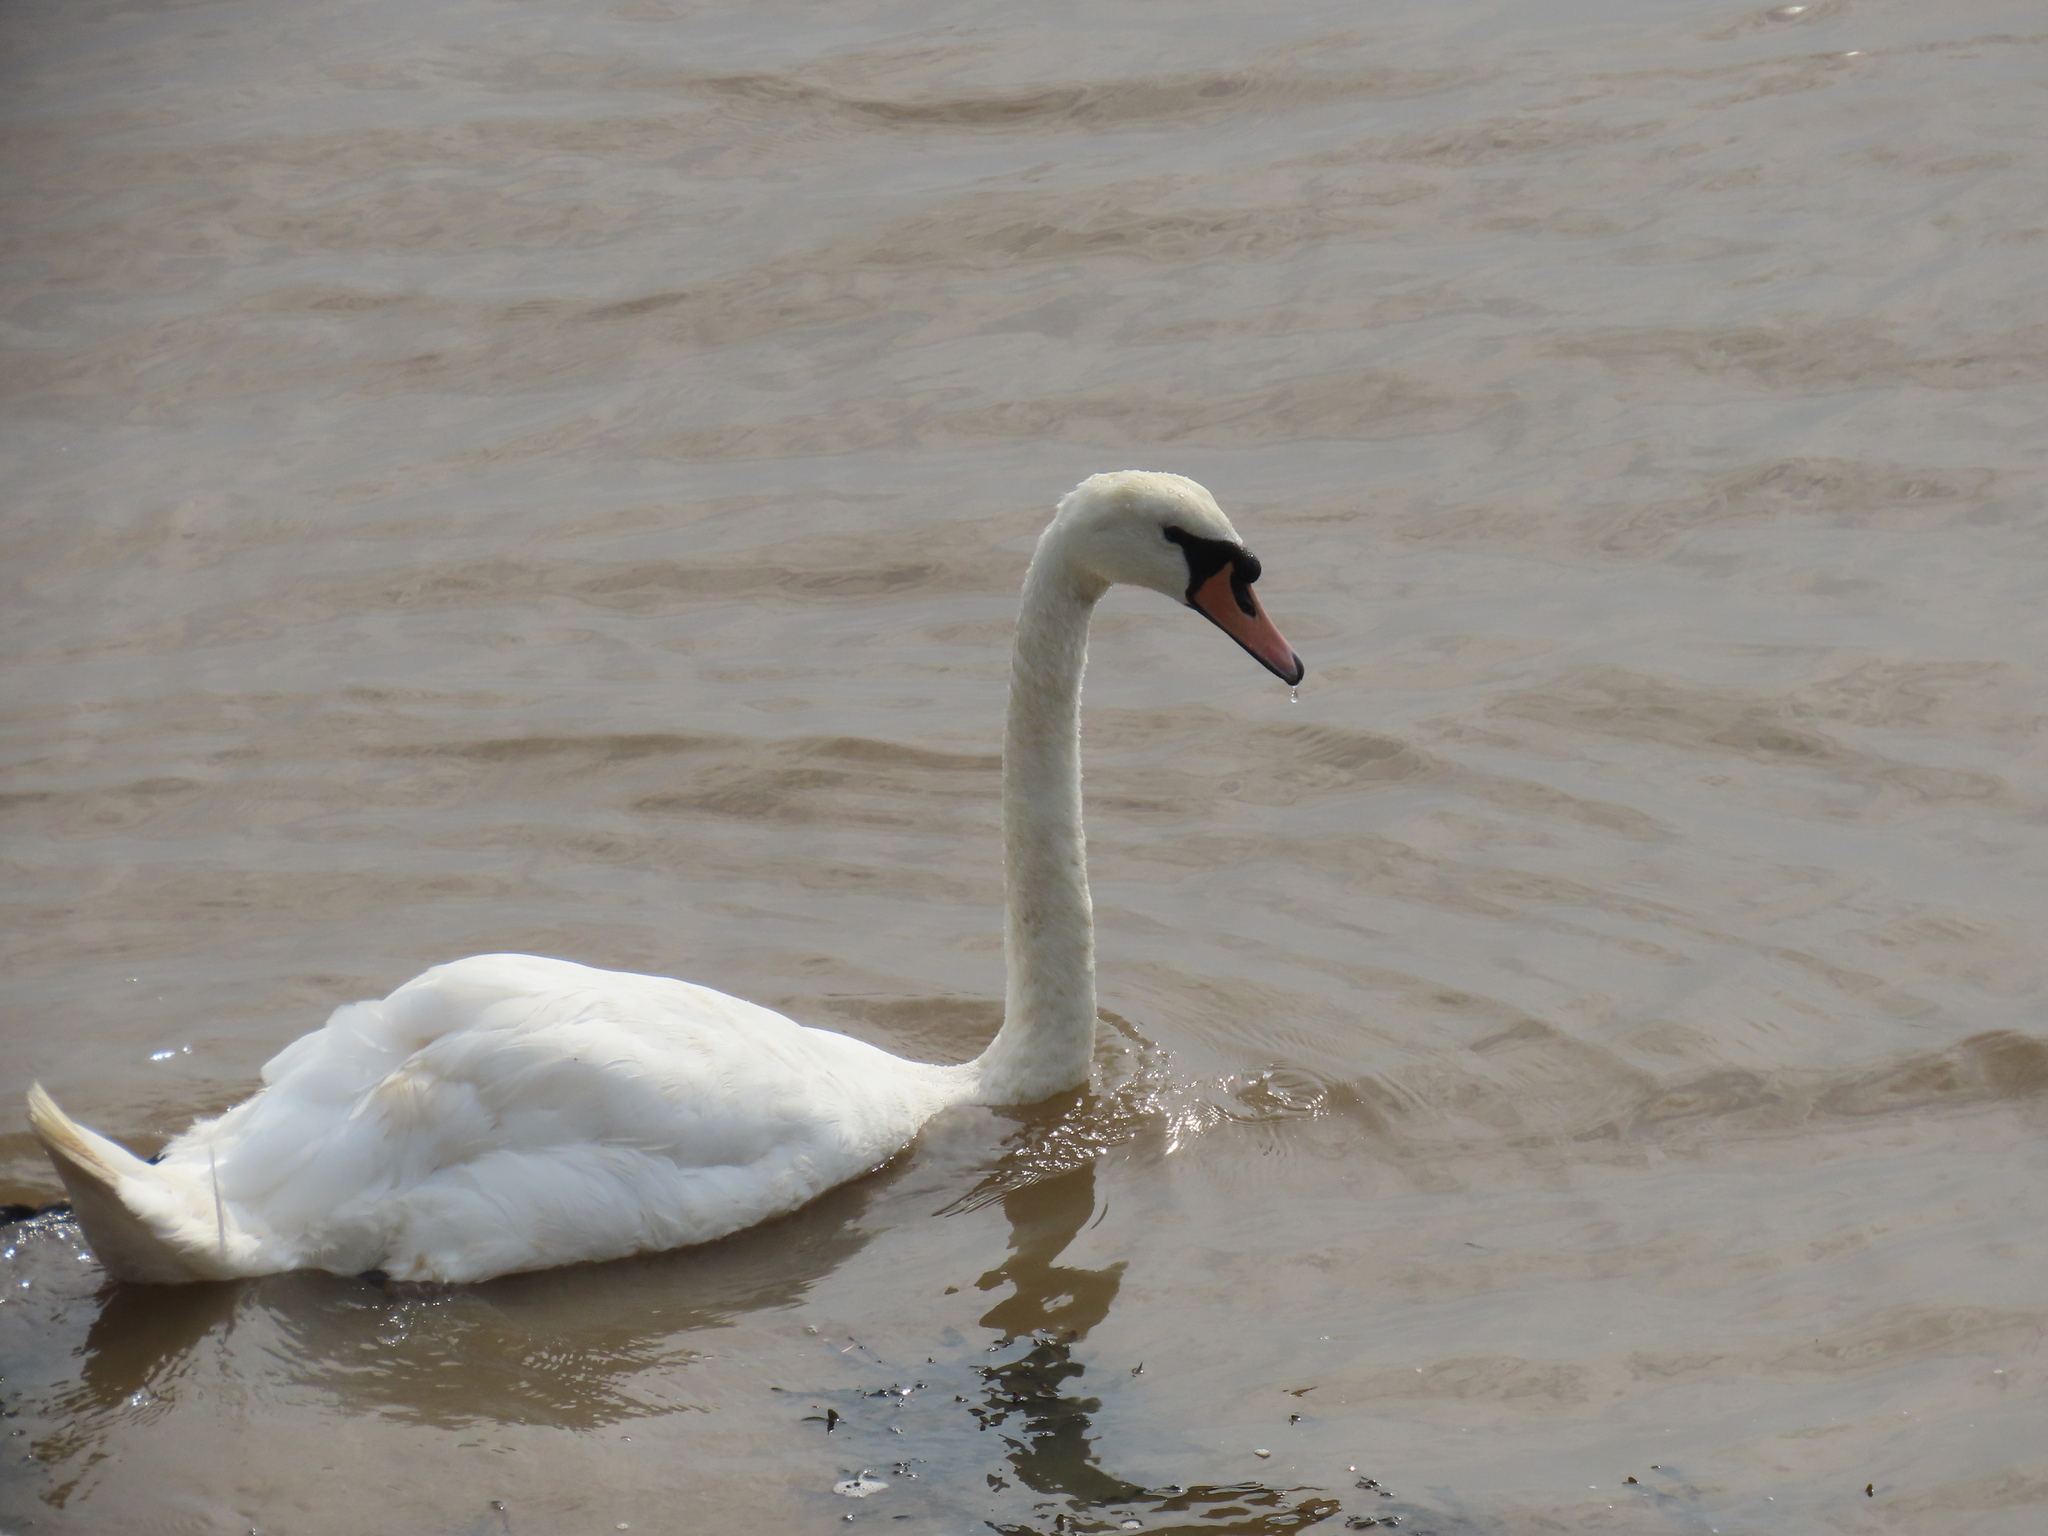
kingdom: Animalia
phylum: Chordata
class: Aves
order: Anseriformes
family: Anatidae
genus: Cygnus
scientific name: Cygnus olor
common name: Mute swan
